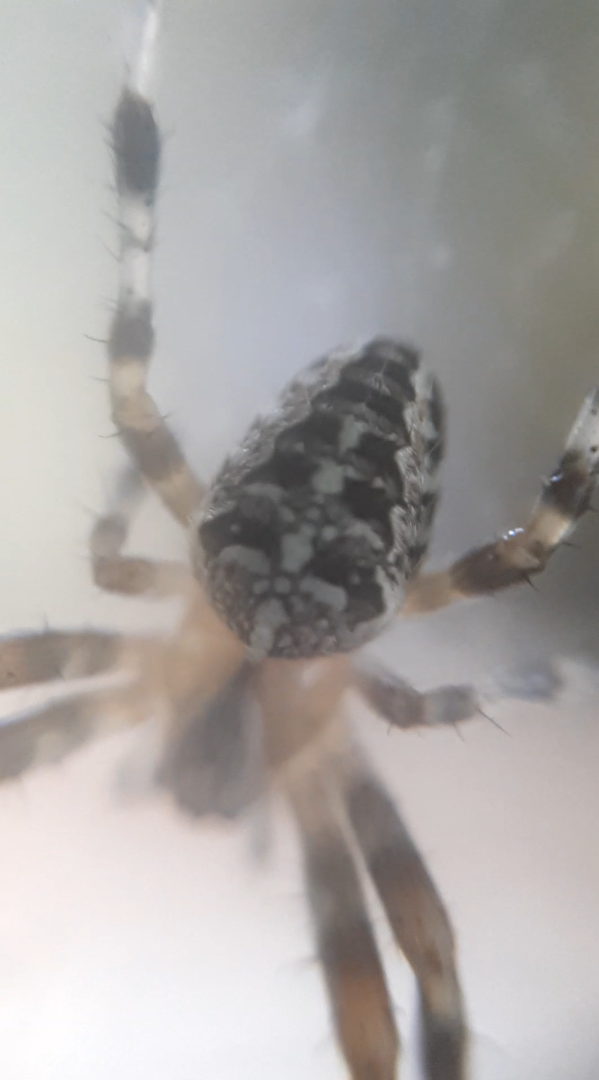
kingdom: Animalia
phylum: Arthropoda
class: Arachnida
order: Araneae
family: Araneidae
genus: Araneus
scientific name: Araneus diadematus
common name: Cross orbweaver
